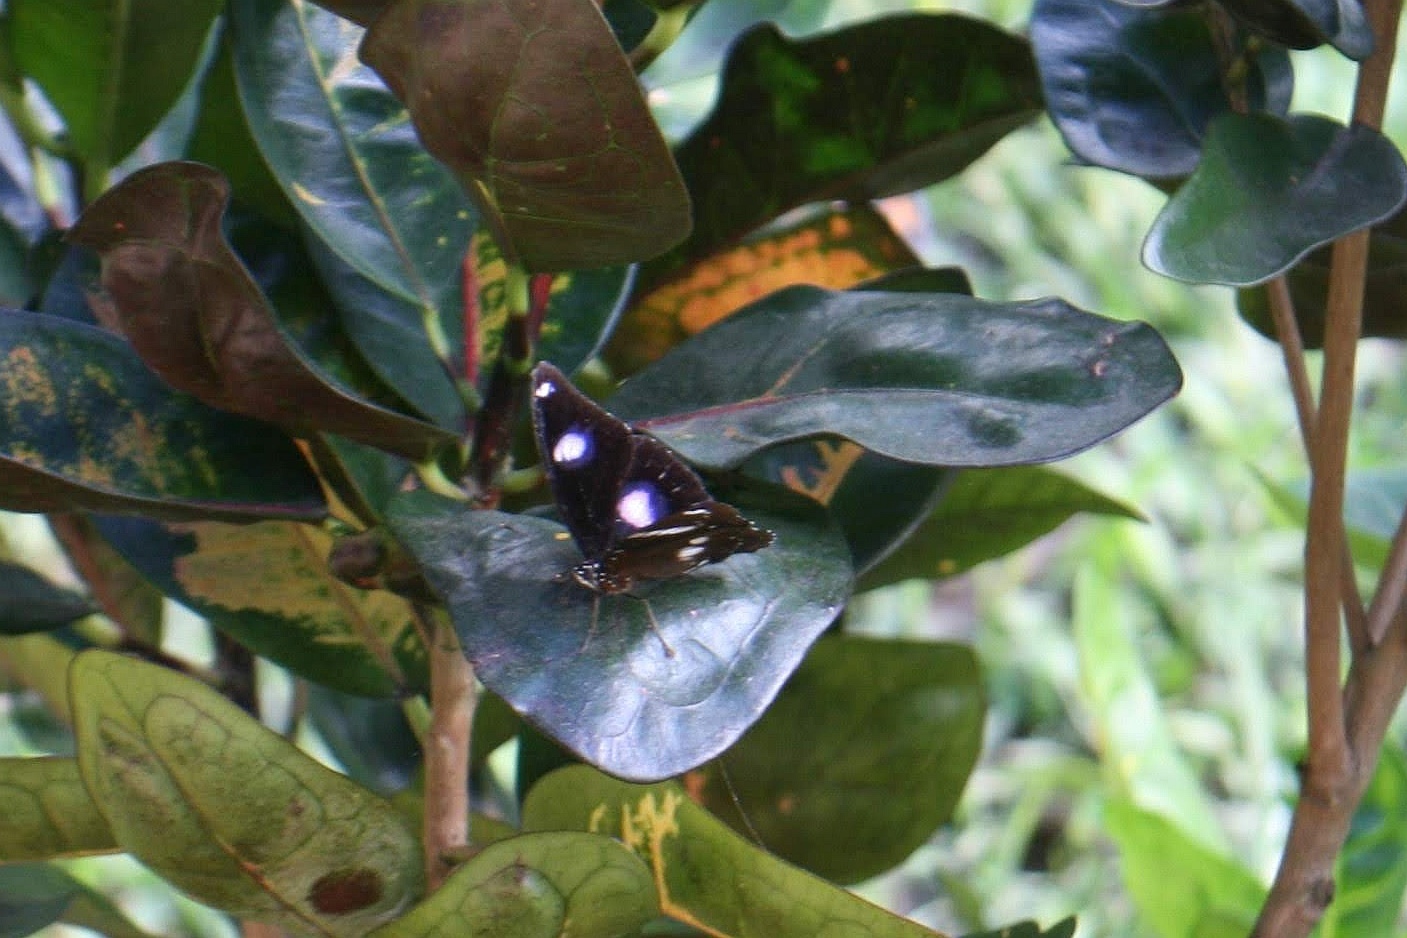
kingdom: Animalia
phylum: Arthropoda
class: Insecta
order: Lepidoptera
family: Nymphalidae
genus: Hypolimnas
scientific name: Hypolimnas bolina
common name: Great eggfly
